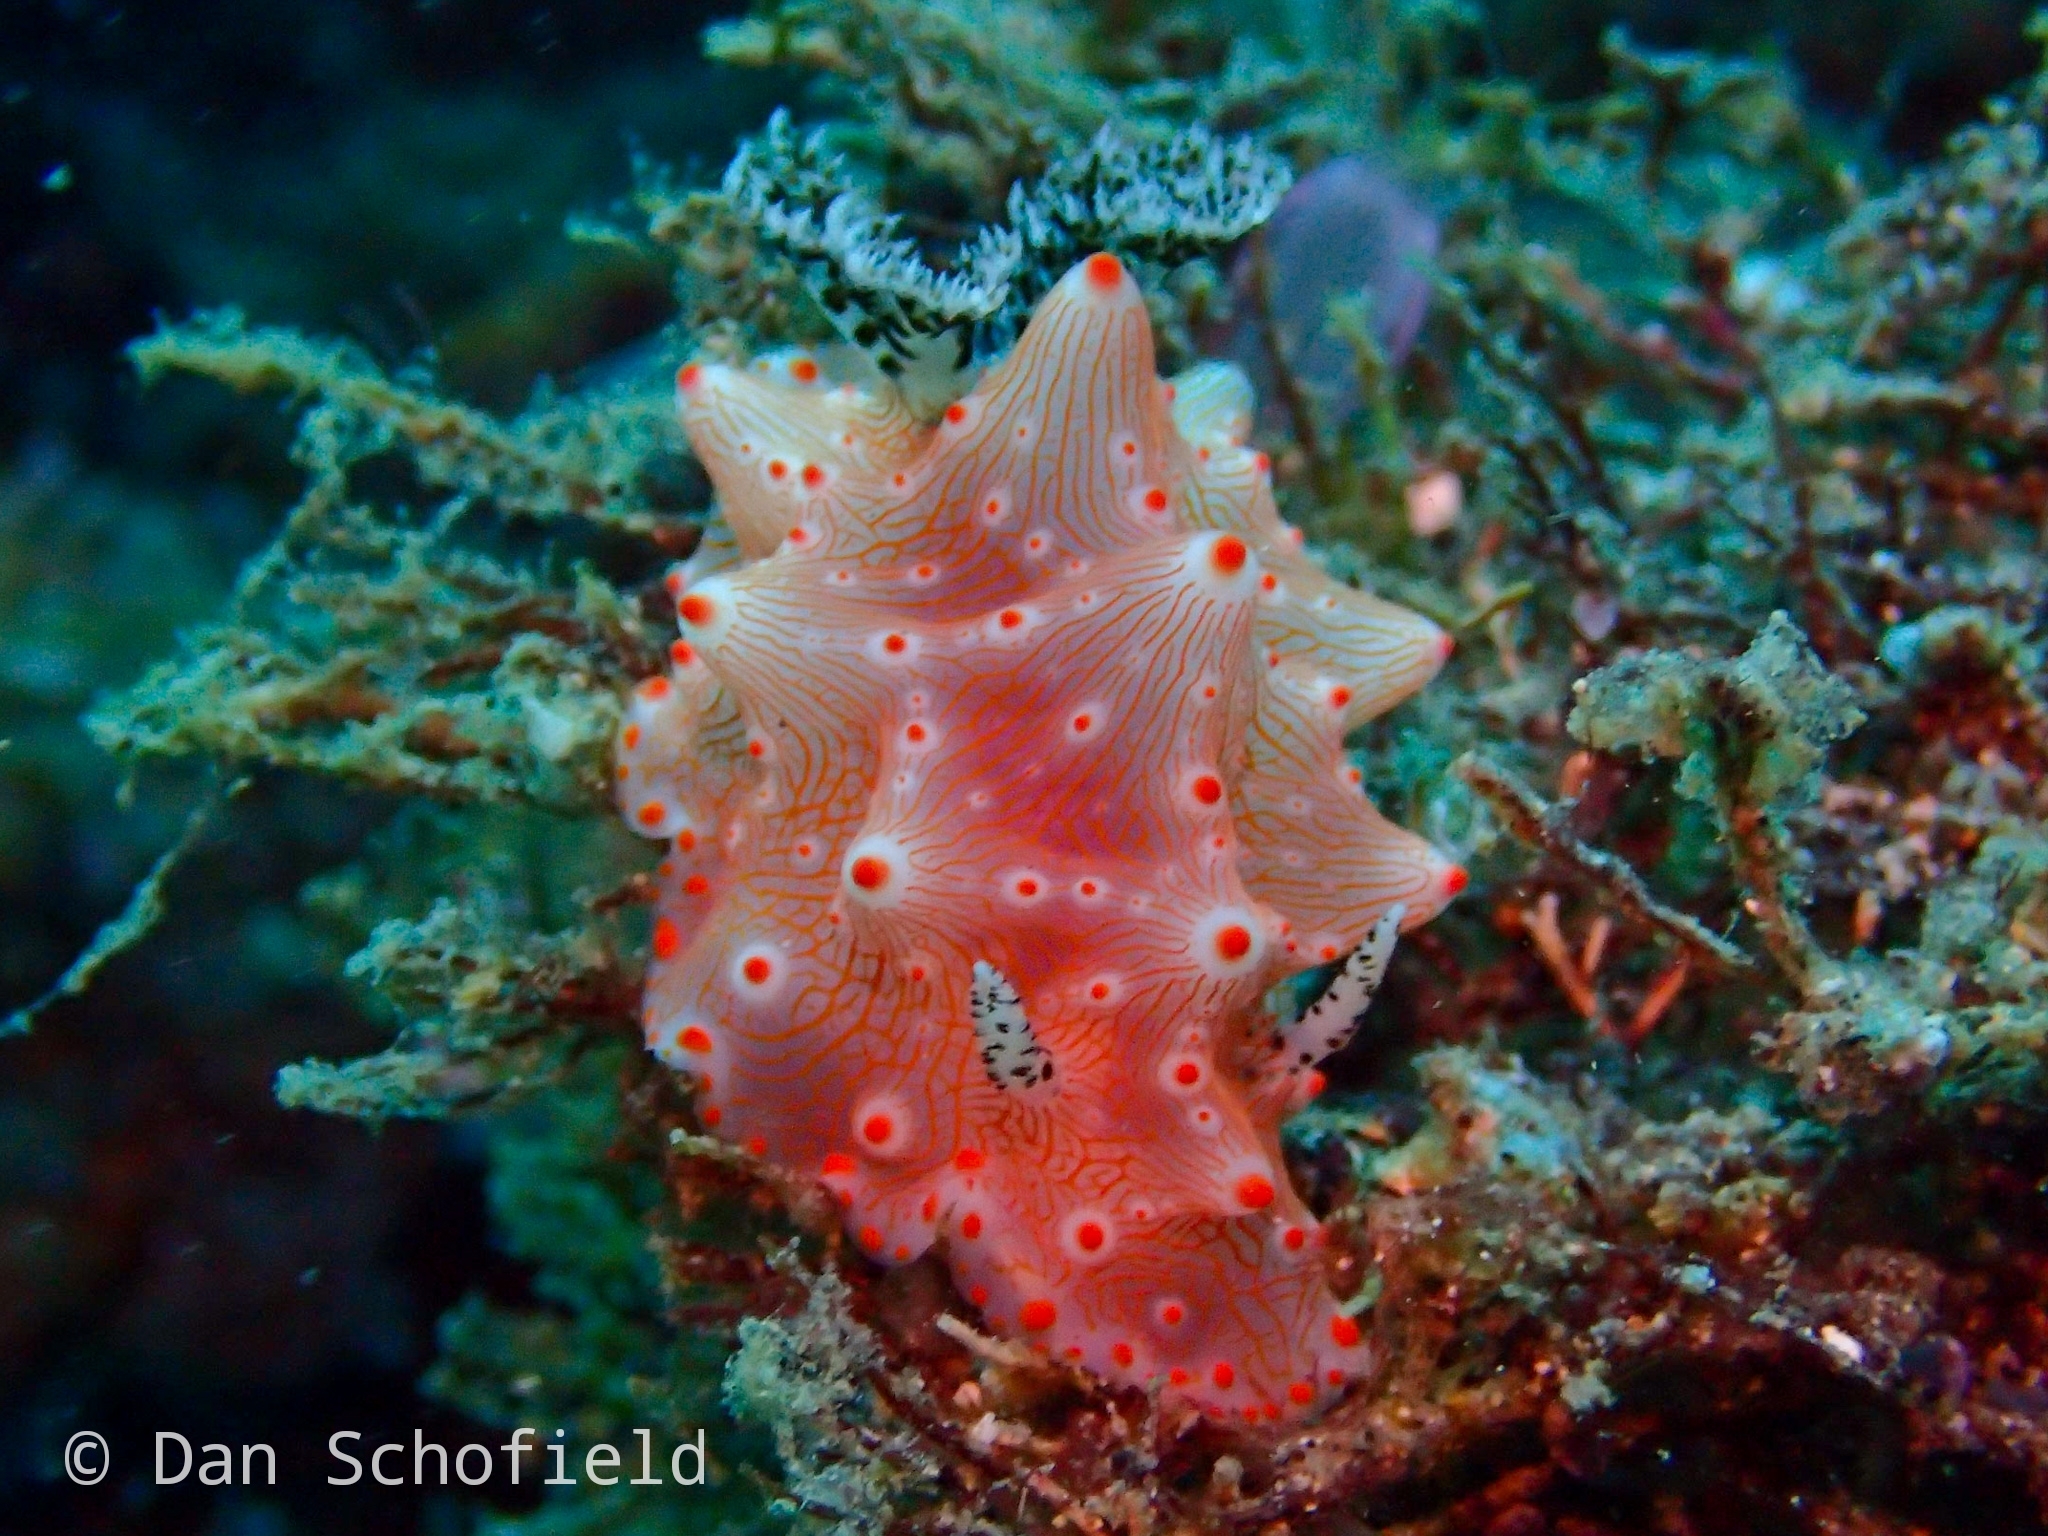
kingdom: Animalia
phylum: Mollusca
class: Gastropoda
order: Nudibranchia
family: Discodorididae
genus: Halgerda
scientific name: Halgerda batangas
